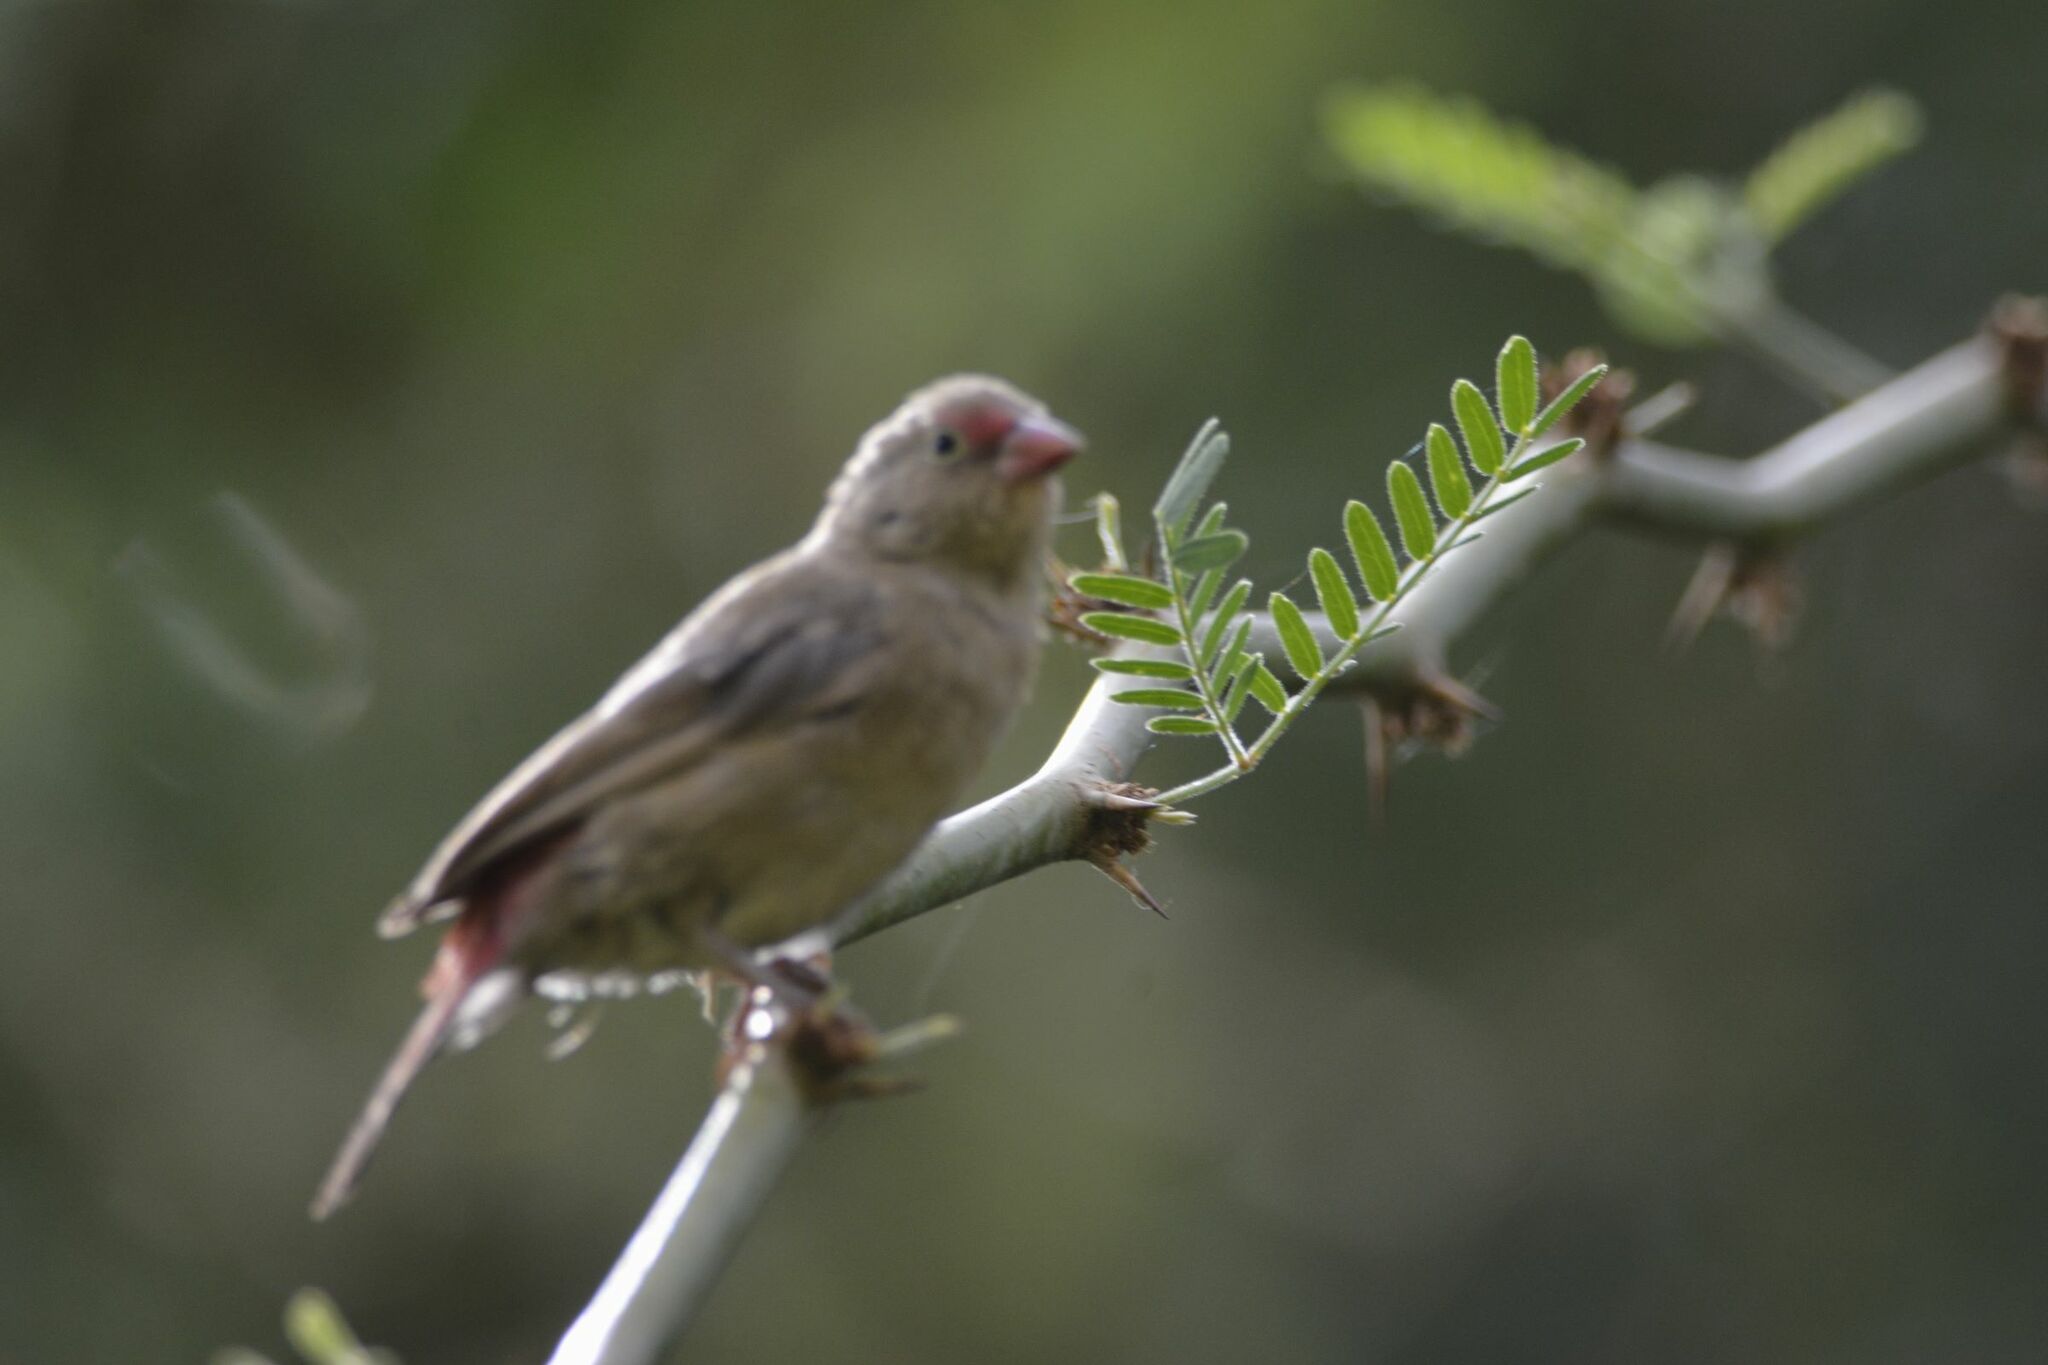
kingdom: Animalia
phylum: Chordata
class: Aves
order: Passeriformes
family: Estrildidae
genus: Lagonosticta
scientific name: Lagonosticta senegala
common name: Red-billed firefinch
